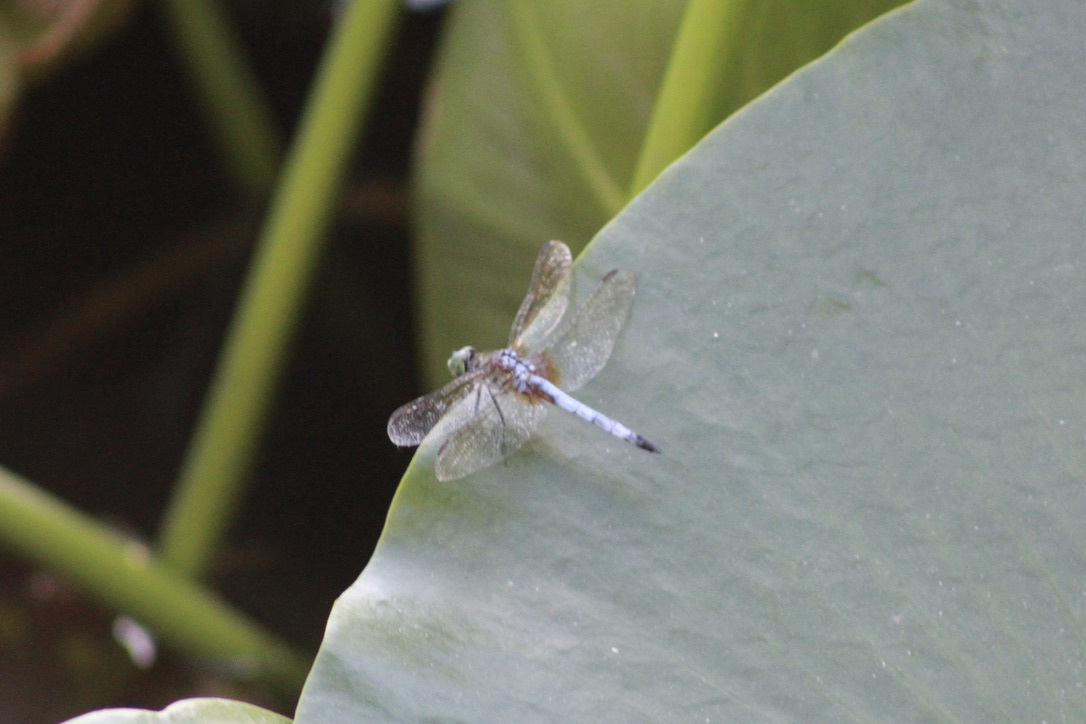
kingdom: Animalia
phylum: Arthropoda
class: Insecta
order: Odonata
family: Libellulidae
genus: Pachydiplax
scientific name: Pachydiplax longipennis
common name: Blue dasher
